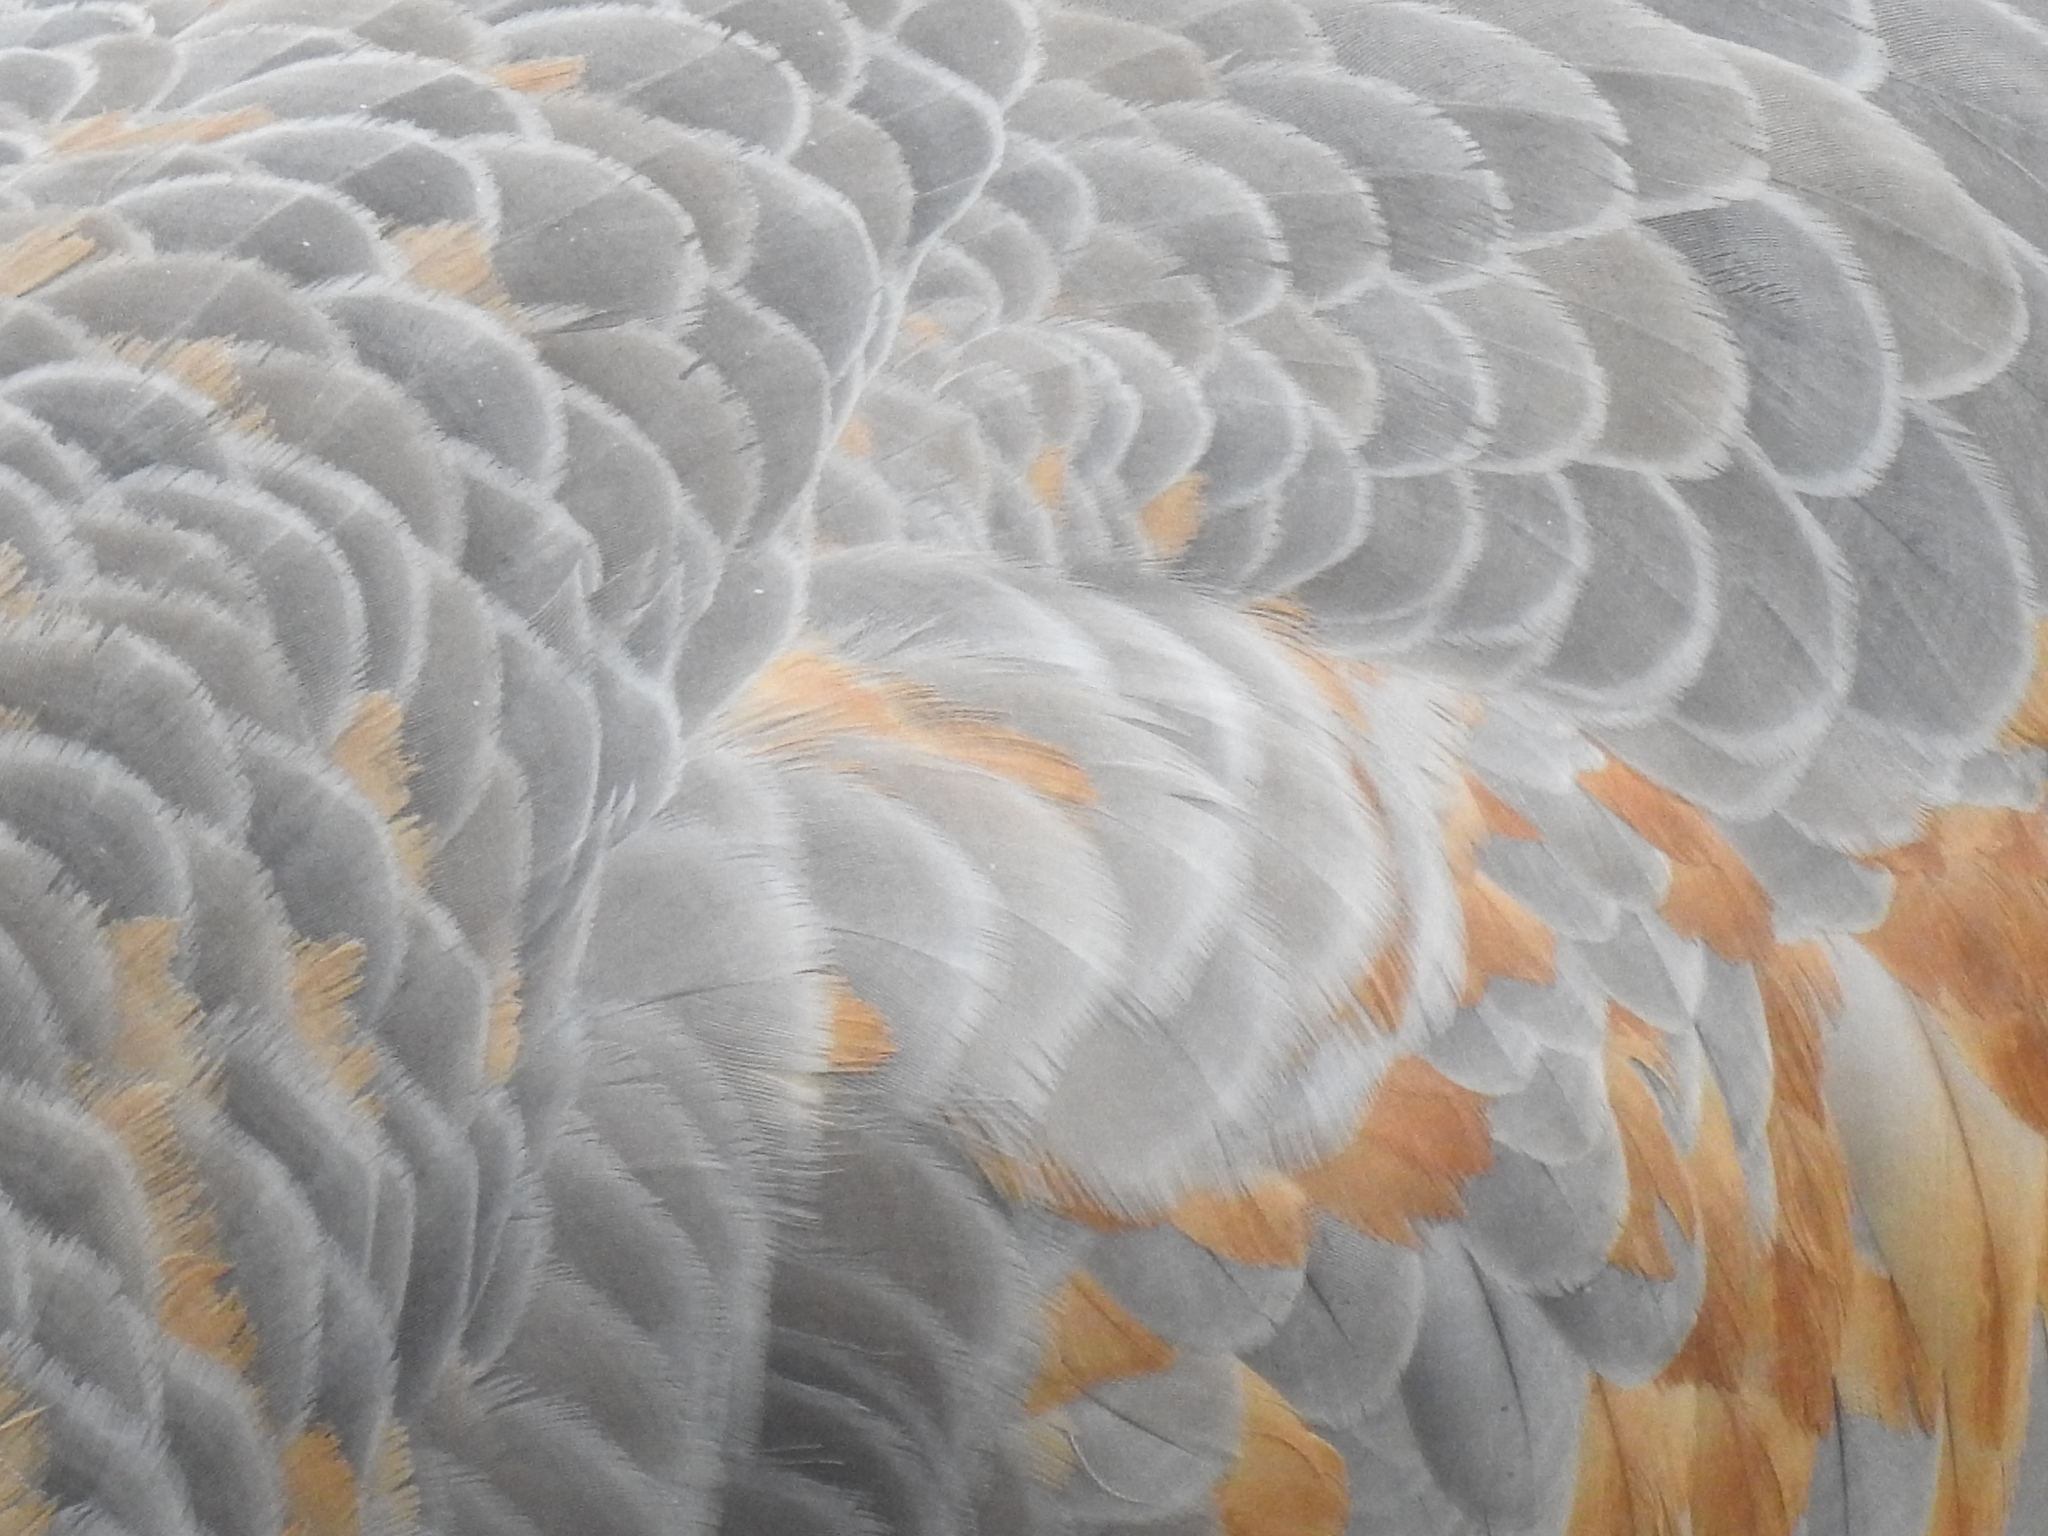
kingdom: Animalia
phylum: Chordata
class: Aves
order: Gruiformes
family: Gruidae
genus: Grus
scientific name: Grus canadensis
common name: Sandhill crane
